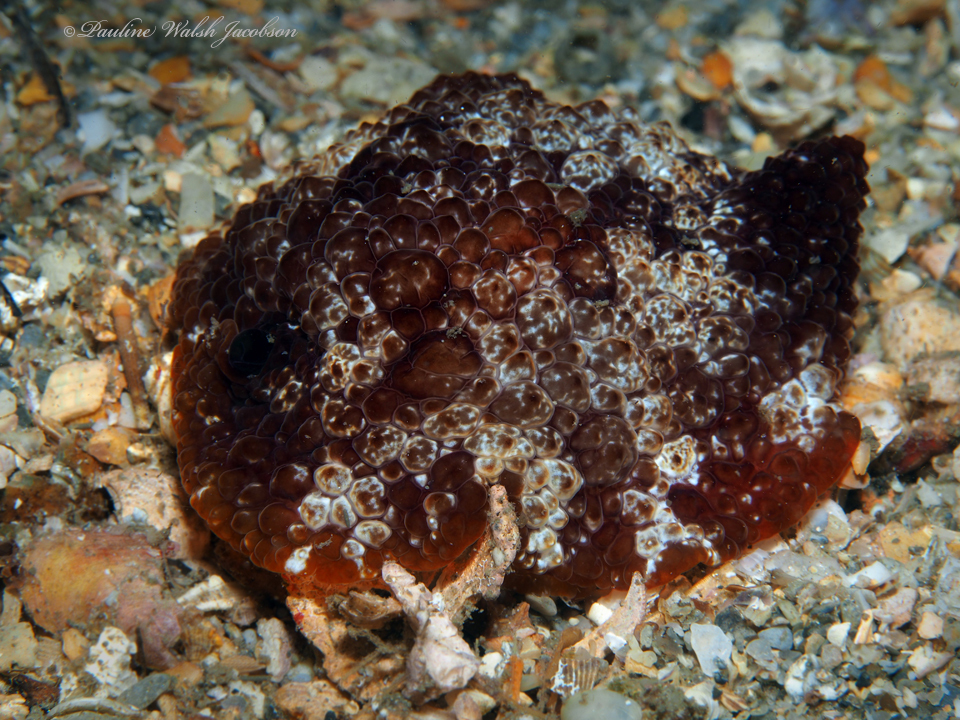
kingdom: Animalia
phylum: Mollusca
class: Gastropoda
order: Pleurobranchida
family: Pleurobranchidae
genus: Pleurobranchus
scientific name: Pleurobranchus areolatus
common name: Atlantic sidegill slug
